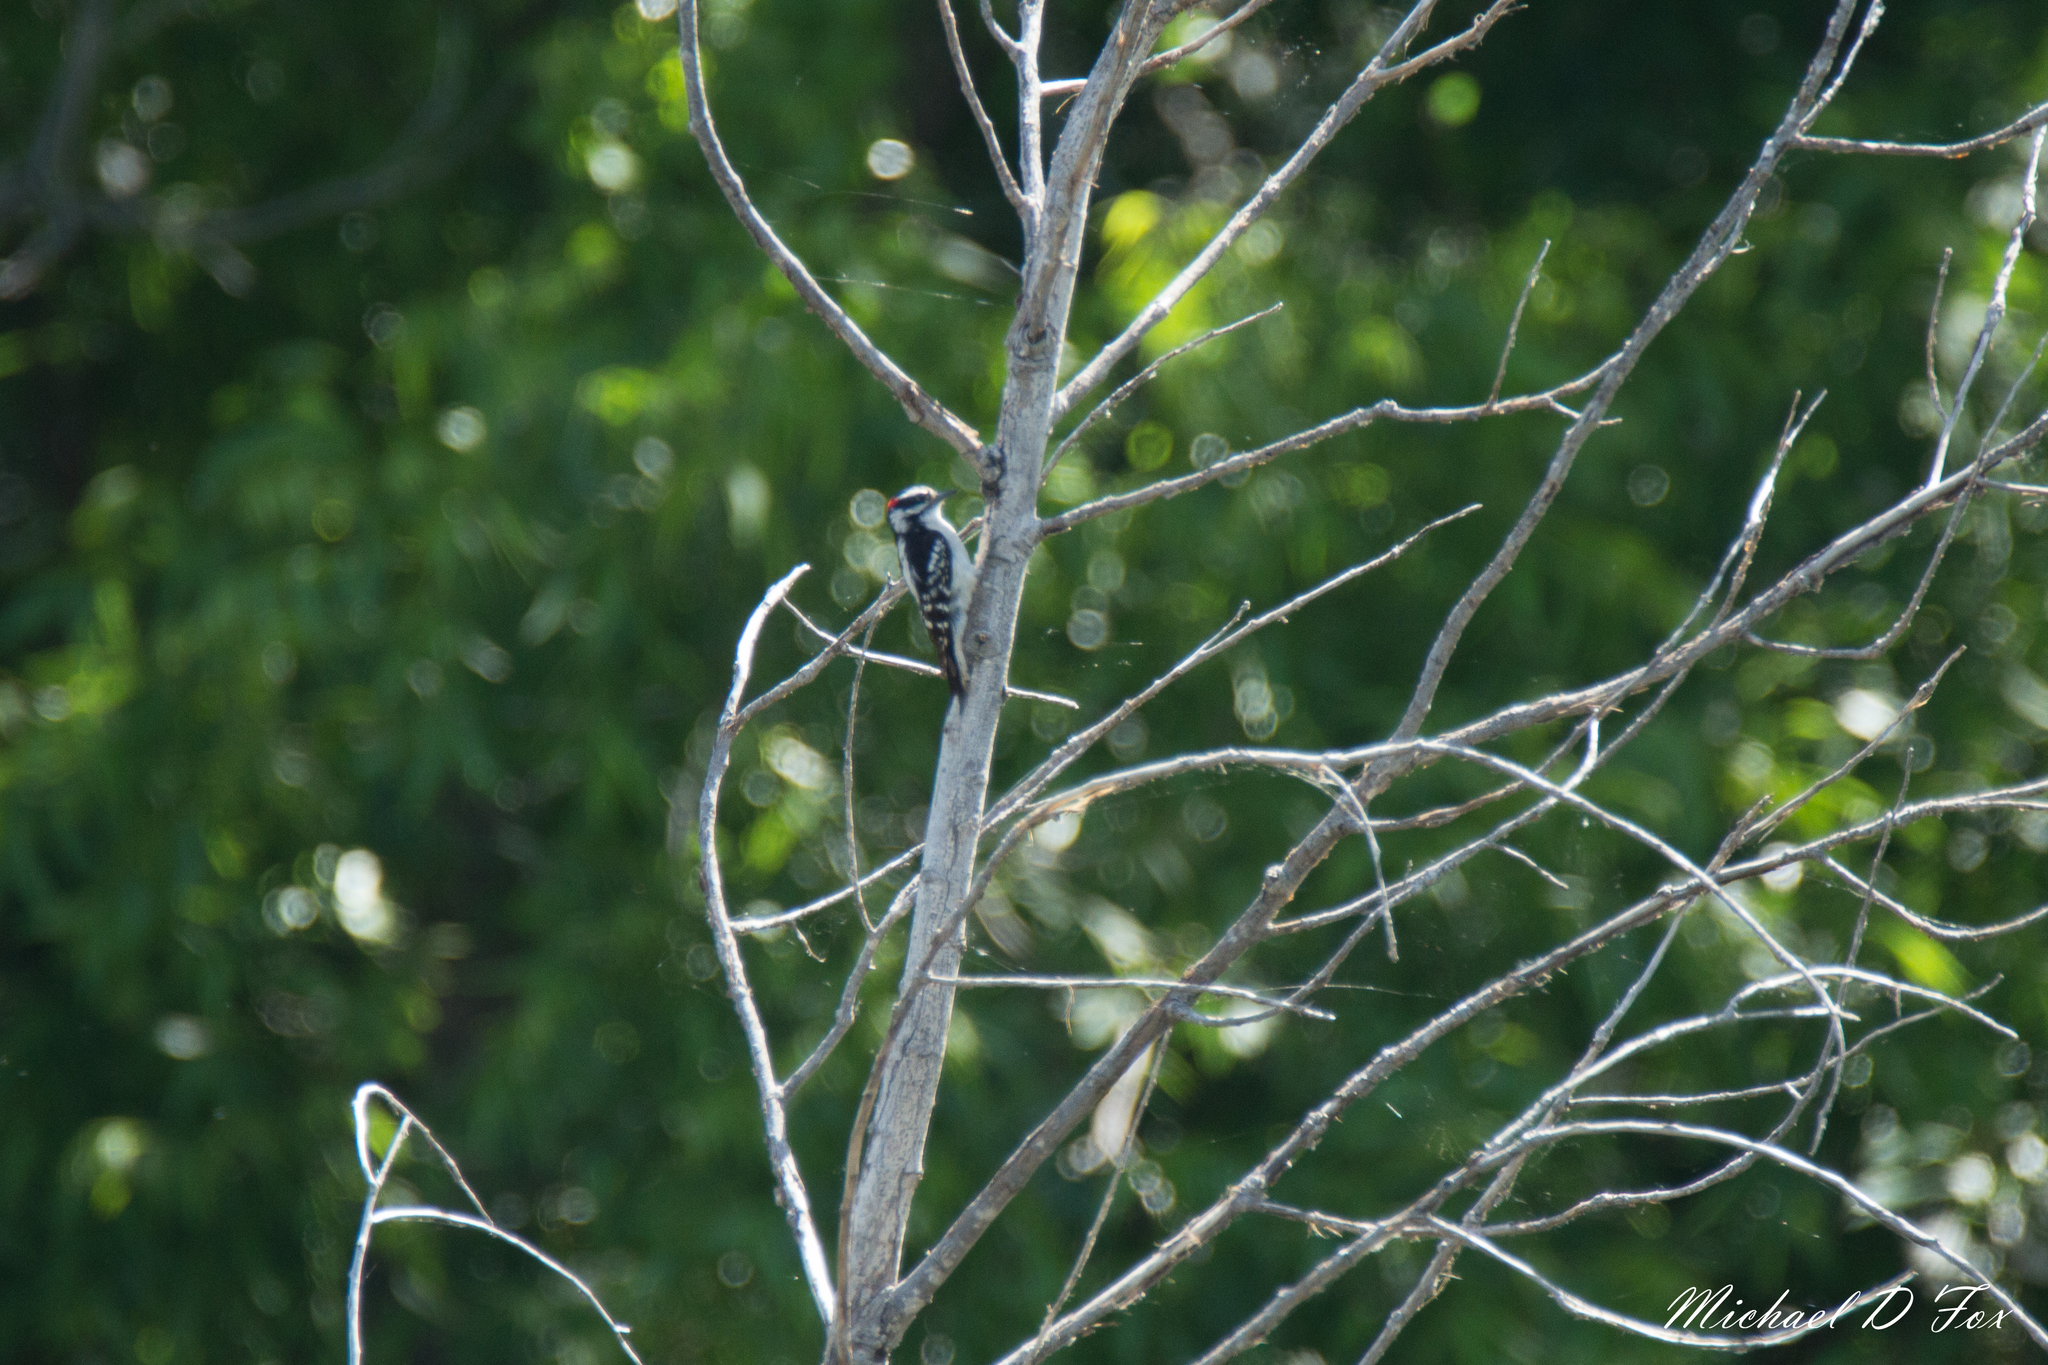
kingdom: Animalia
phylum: Chordata
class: Aves
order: Piciformes
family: Picidae
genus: Dryobates
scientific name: Dryobates pubescens
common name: Downy woodpecker
